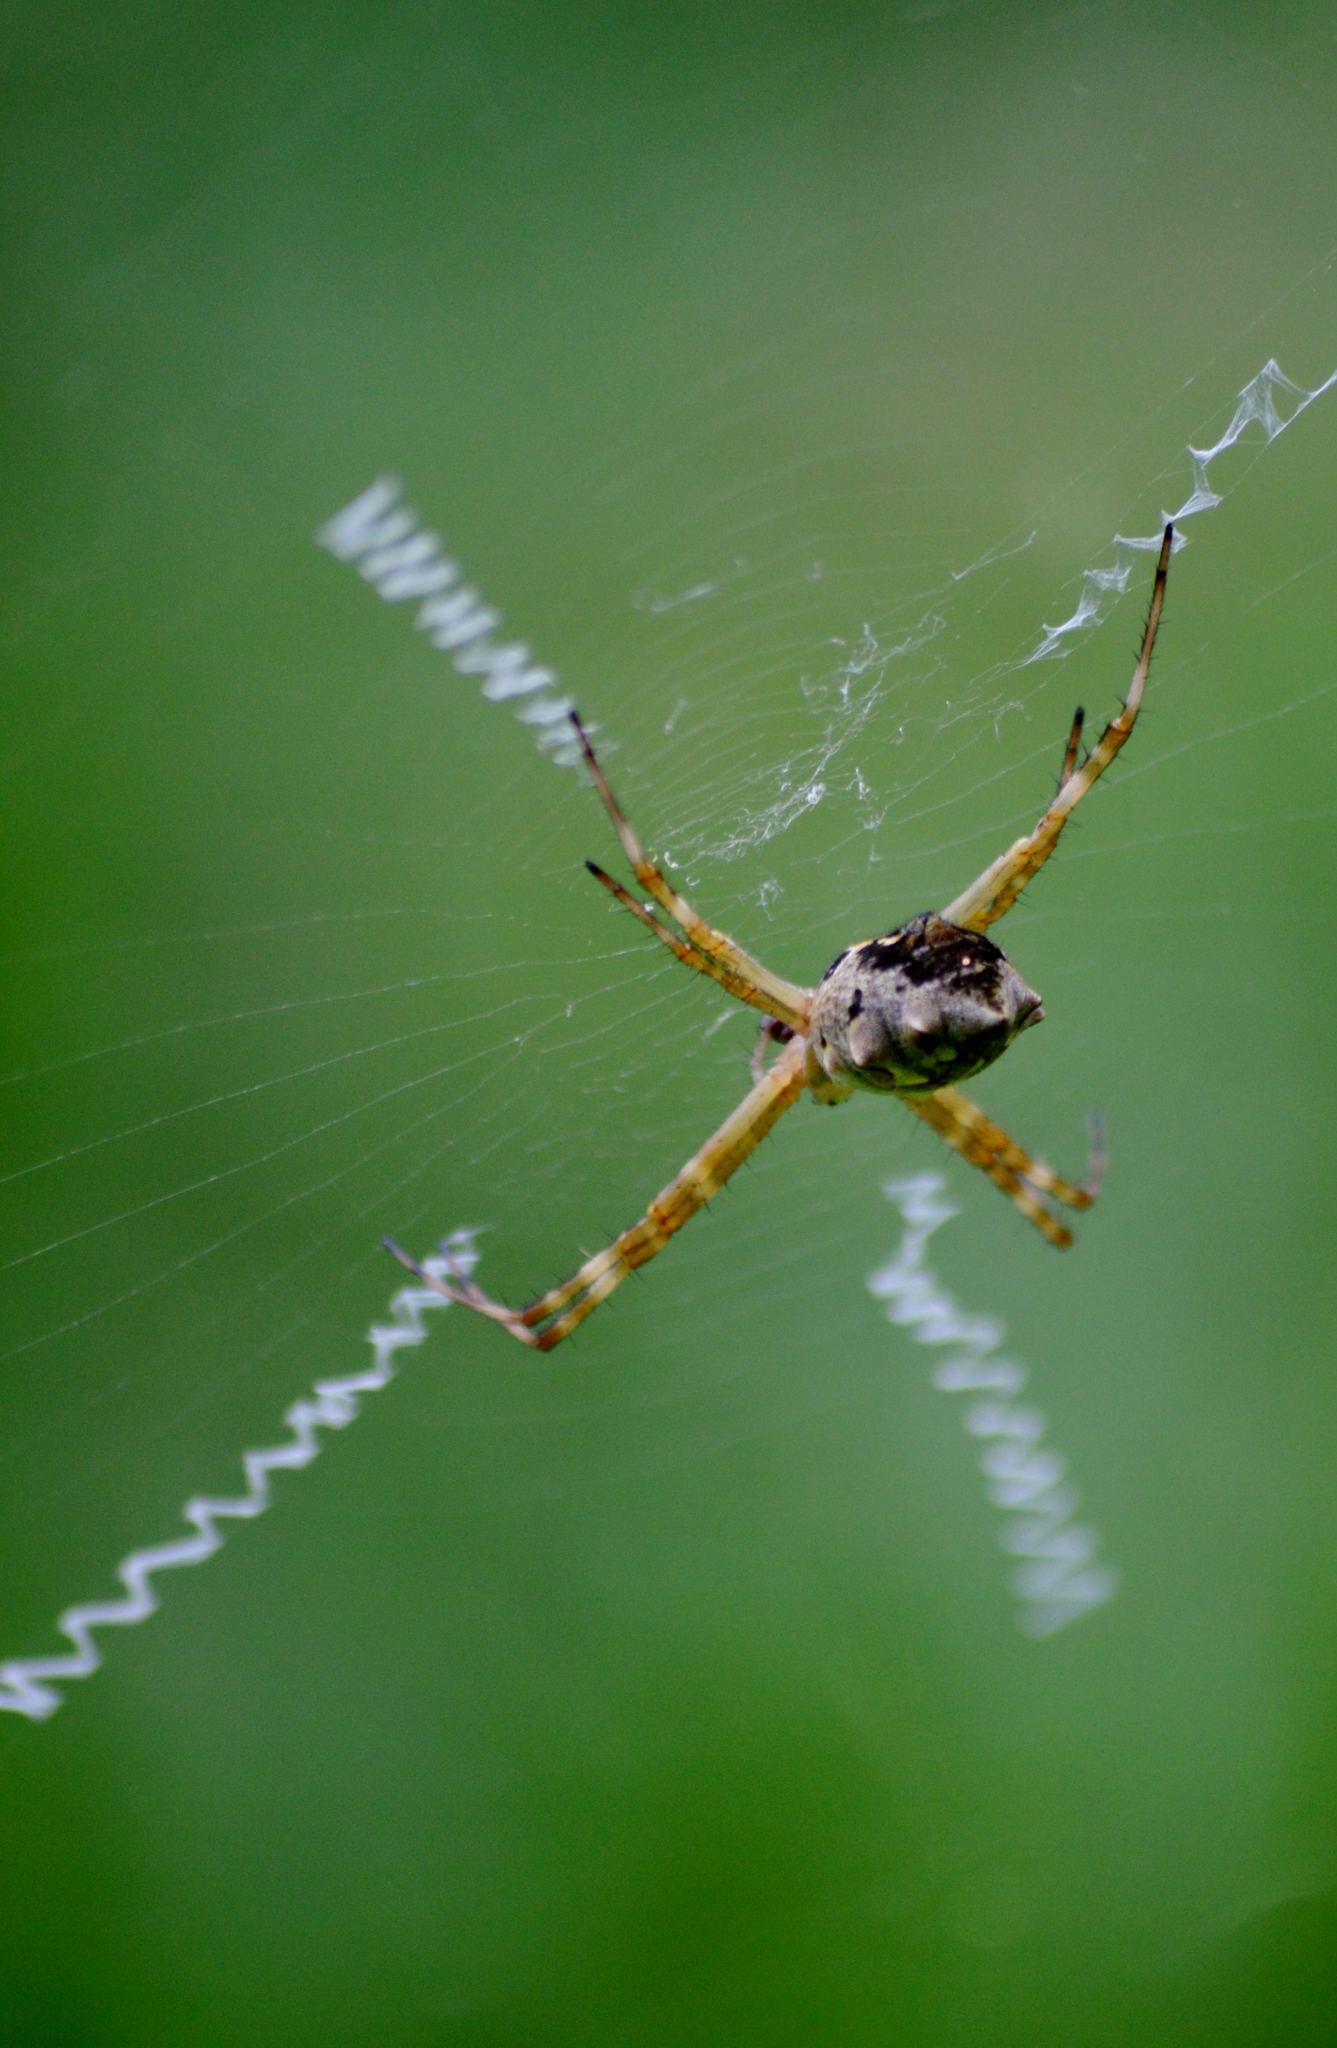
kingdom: Animalia
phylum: Arthropoda
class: Arachnida
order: Araneae
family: Araneidae
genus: Argiope
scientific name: Argiope argentata
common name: Orb weavers
